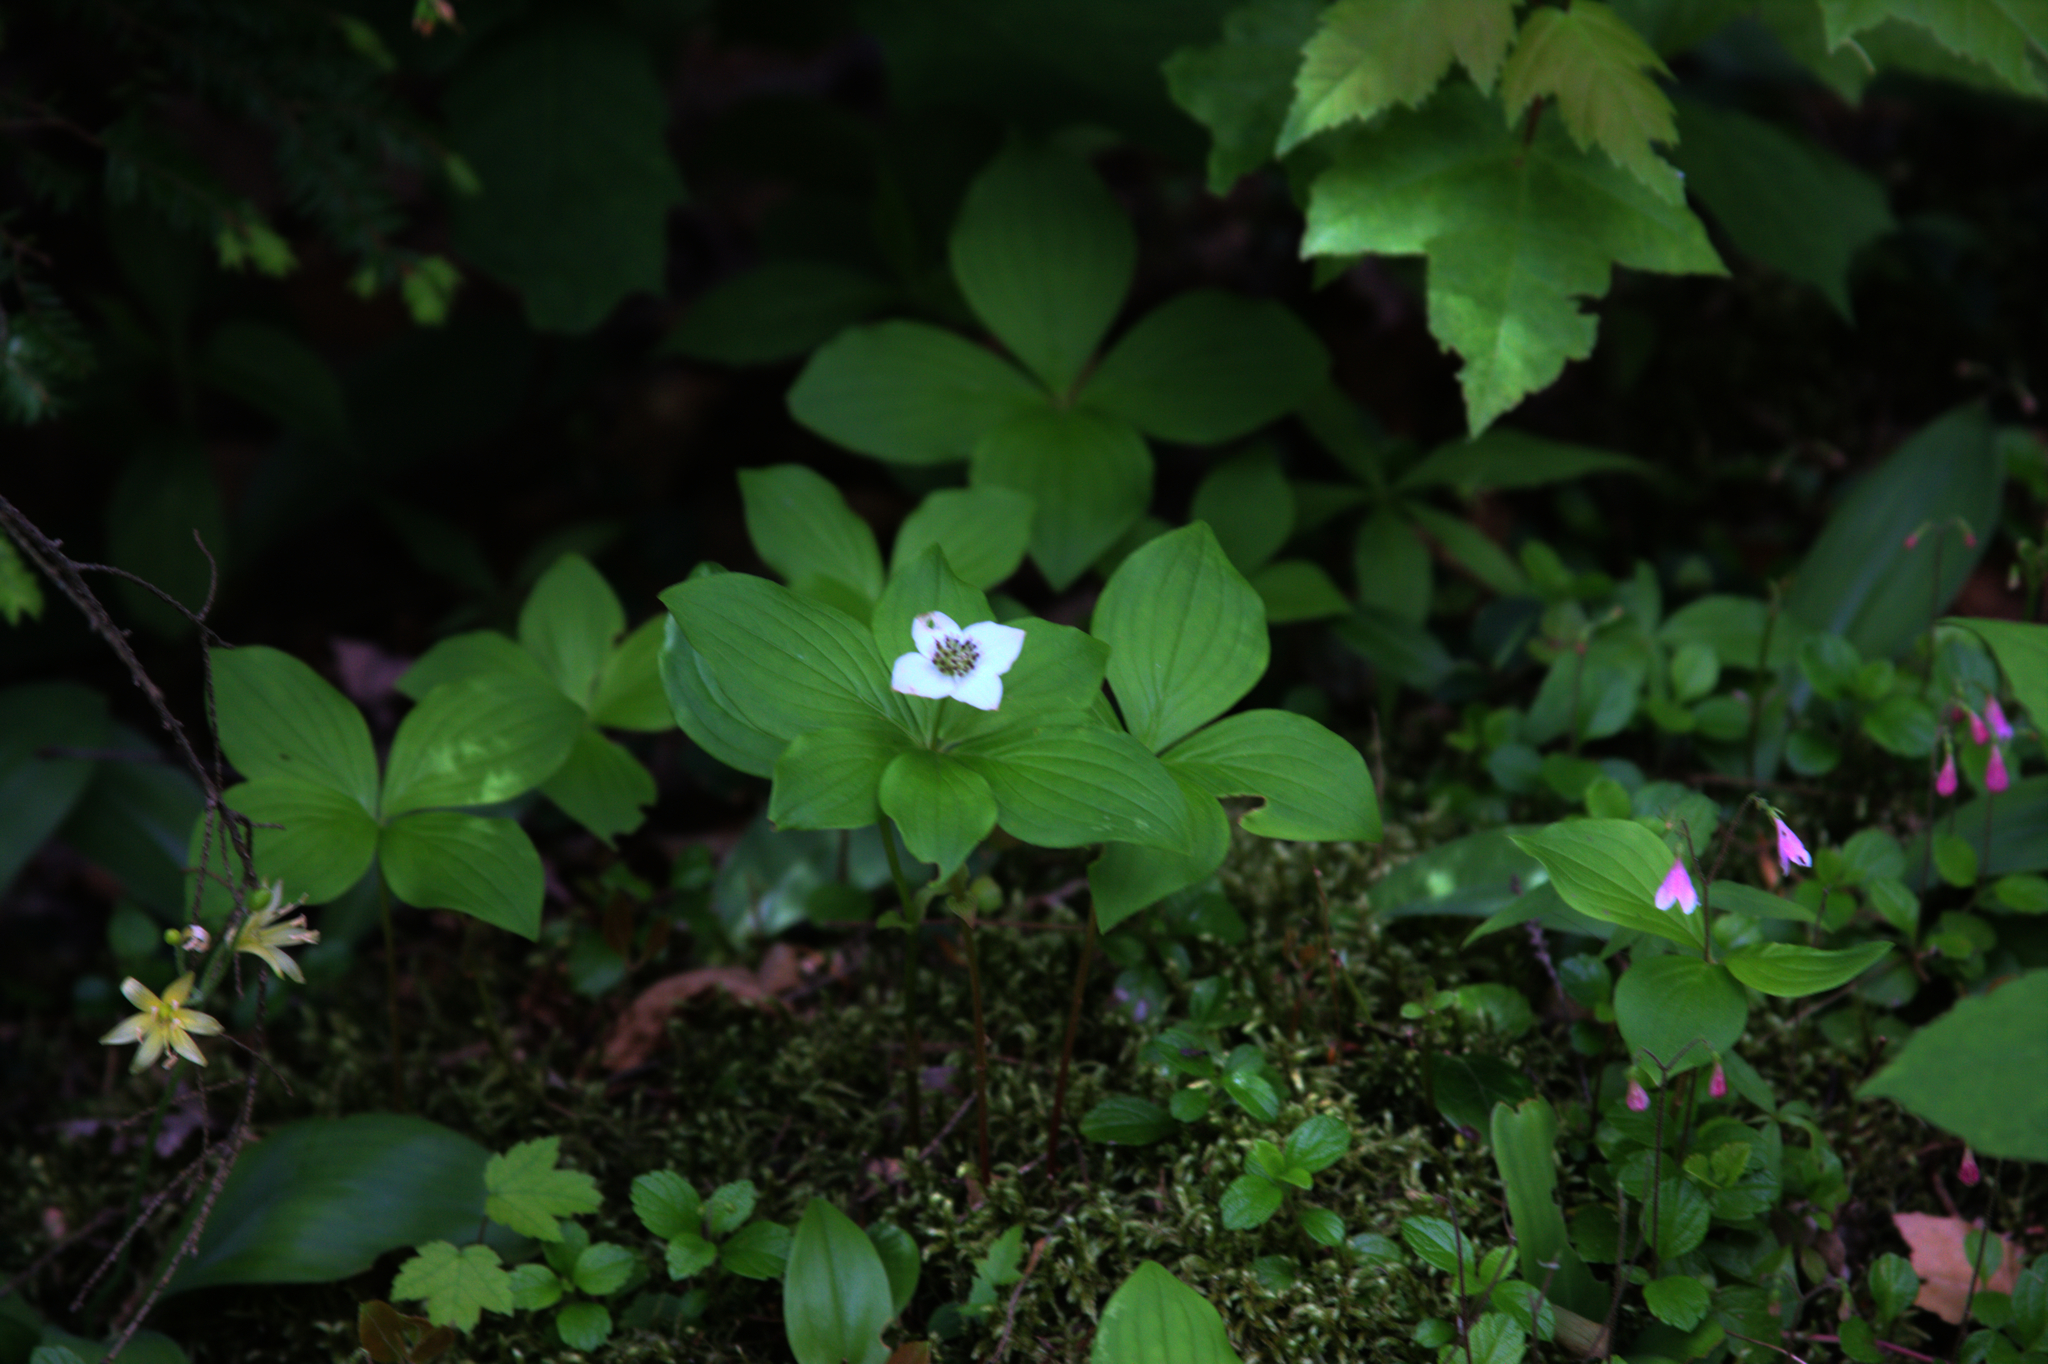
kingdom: Plantae
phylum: Tracheophyta
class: Magnoliopsida
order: Cornales
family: Cornaceae
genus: Cornus
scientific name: Cornus canadensis
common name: Creeping dogwood
